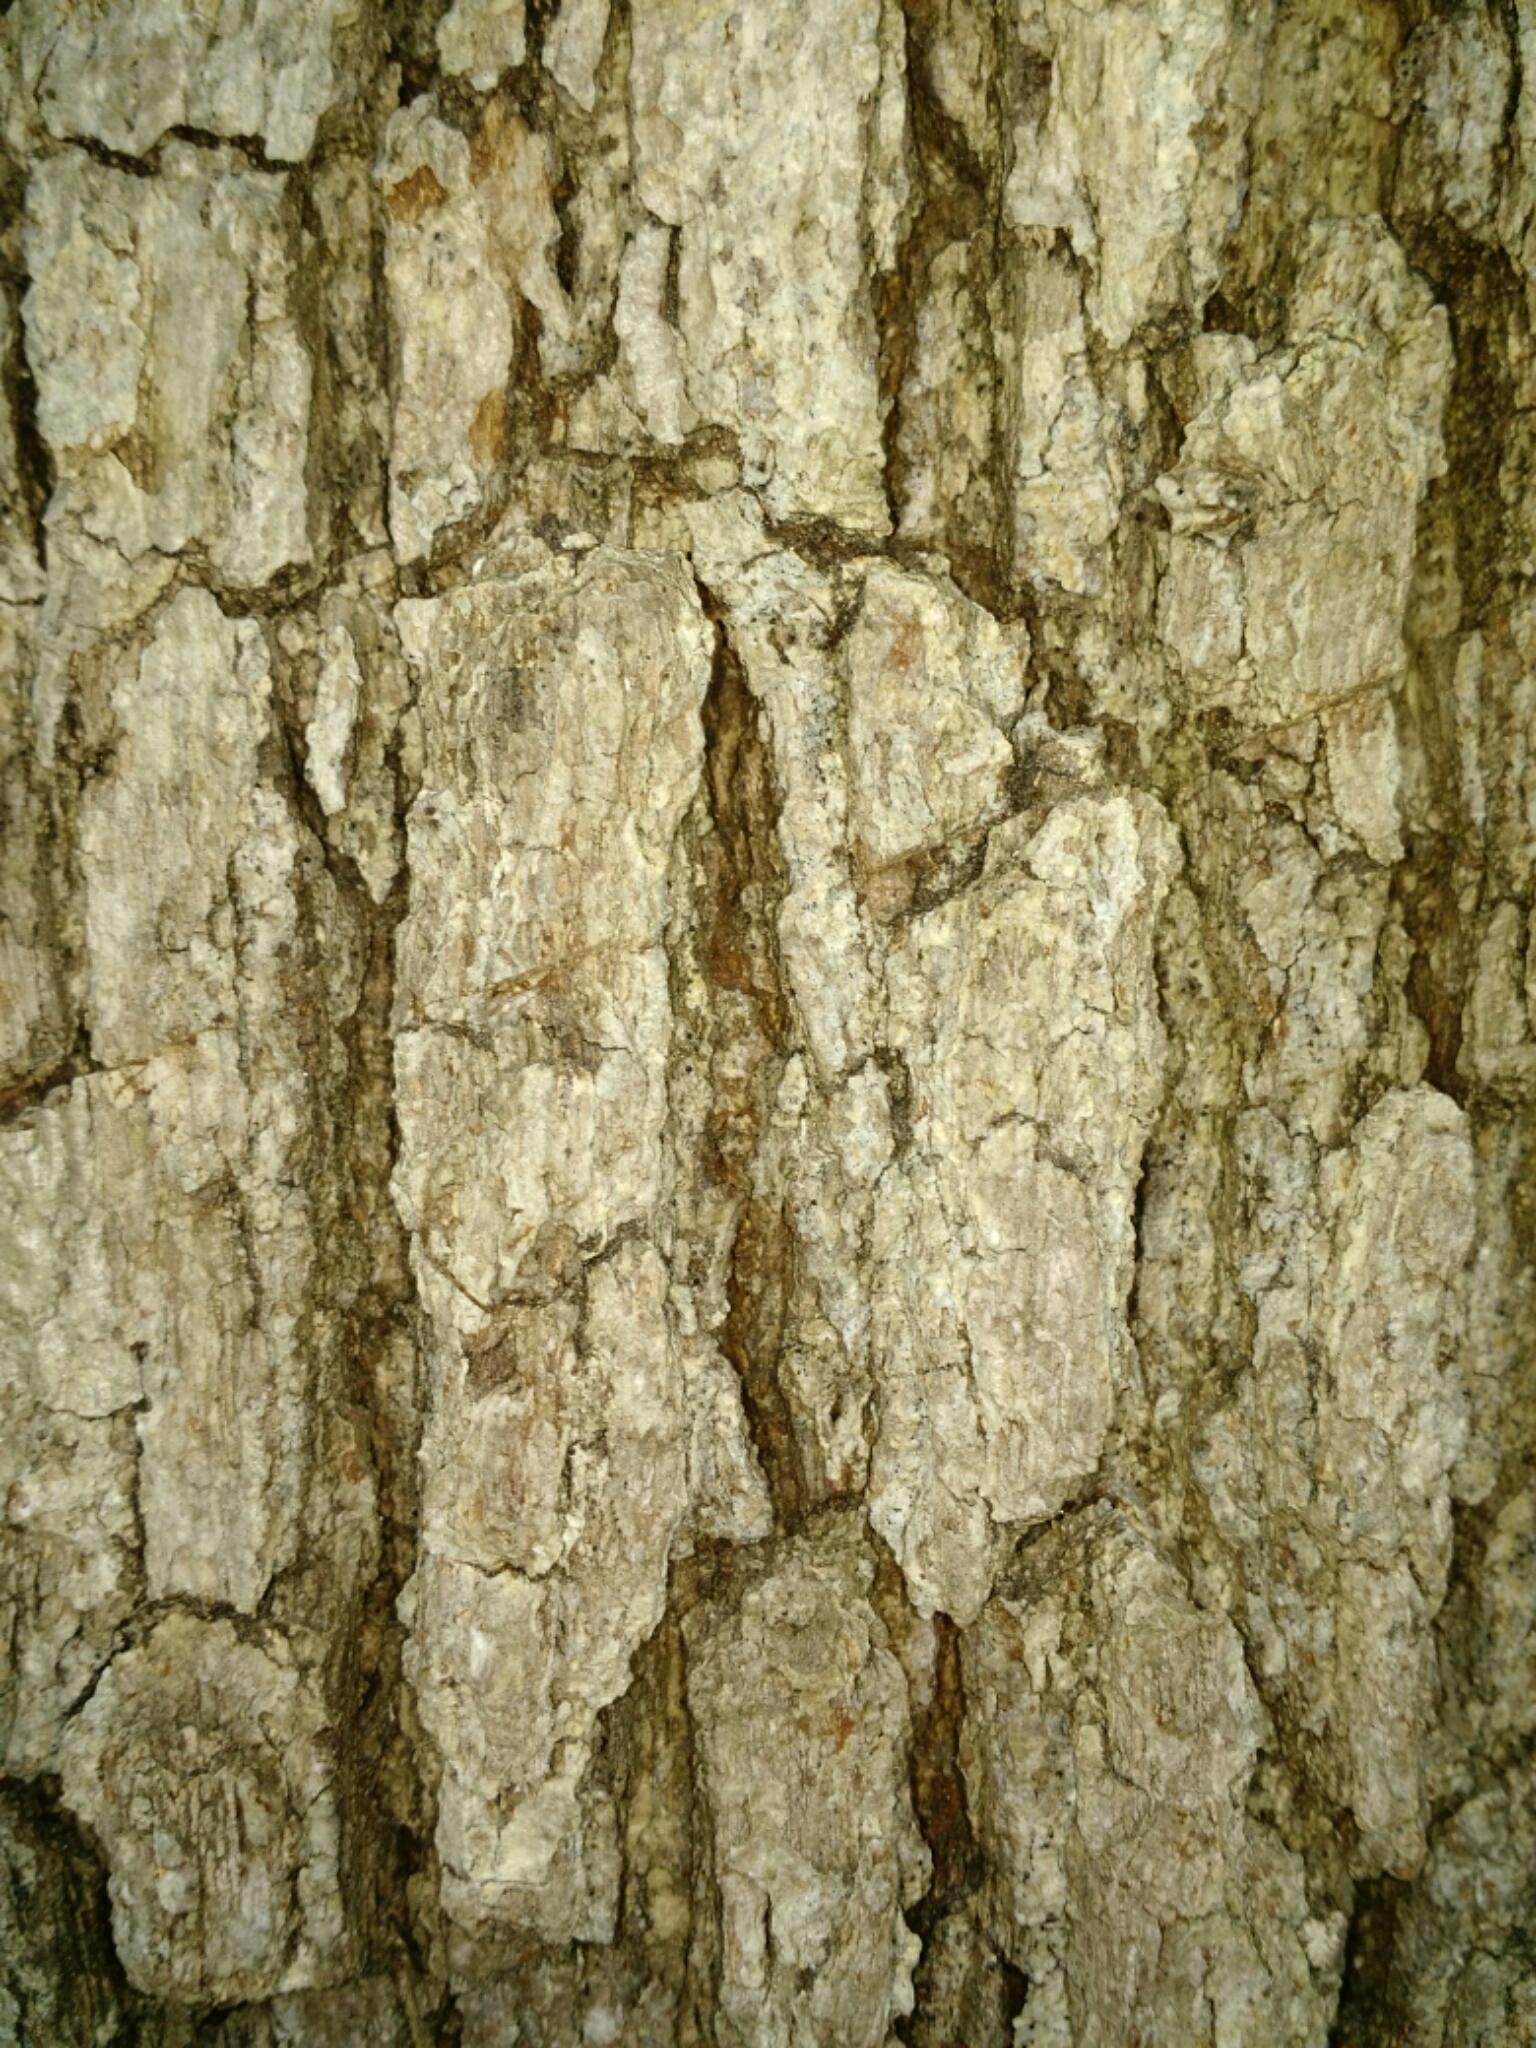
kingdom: Plantae
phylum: Tracheophyta
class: Magnoliopsida
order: Fagales
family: Fagaceae
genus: Quercus
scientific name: Quercus alba
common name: White oak
